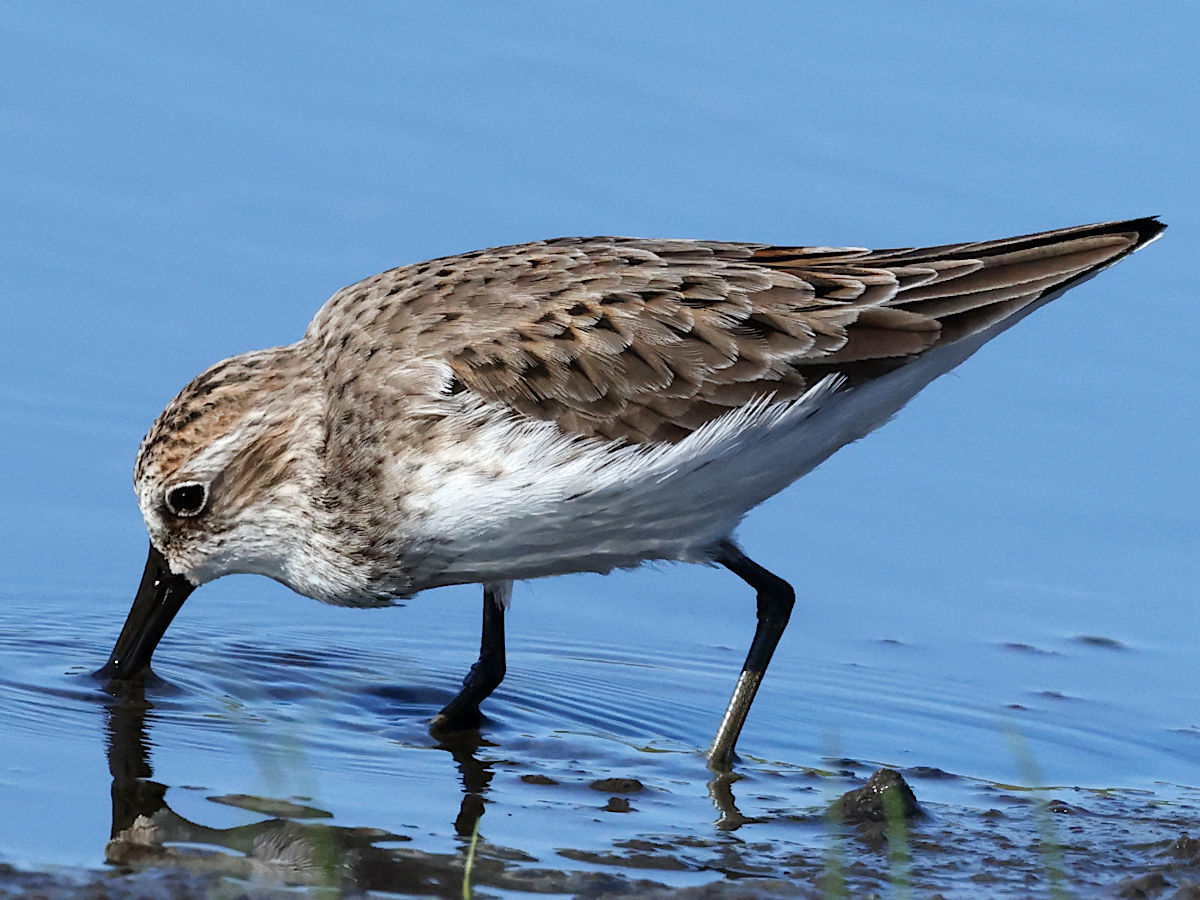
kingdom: Animalia
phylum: Chordata
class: Aves
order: Charadriiformes
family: Scolopacidae
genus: Calidris
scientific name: Calidris pusilla
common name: Semipalmated sandpiper
